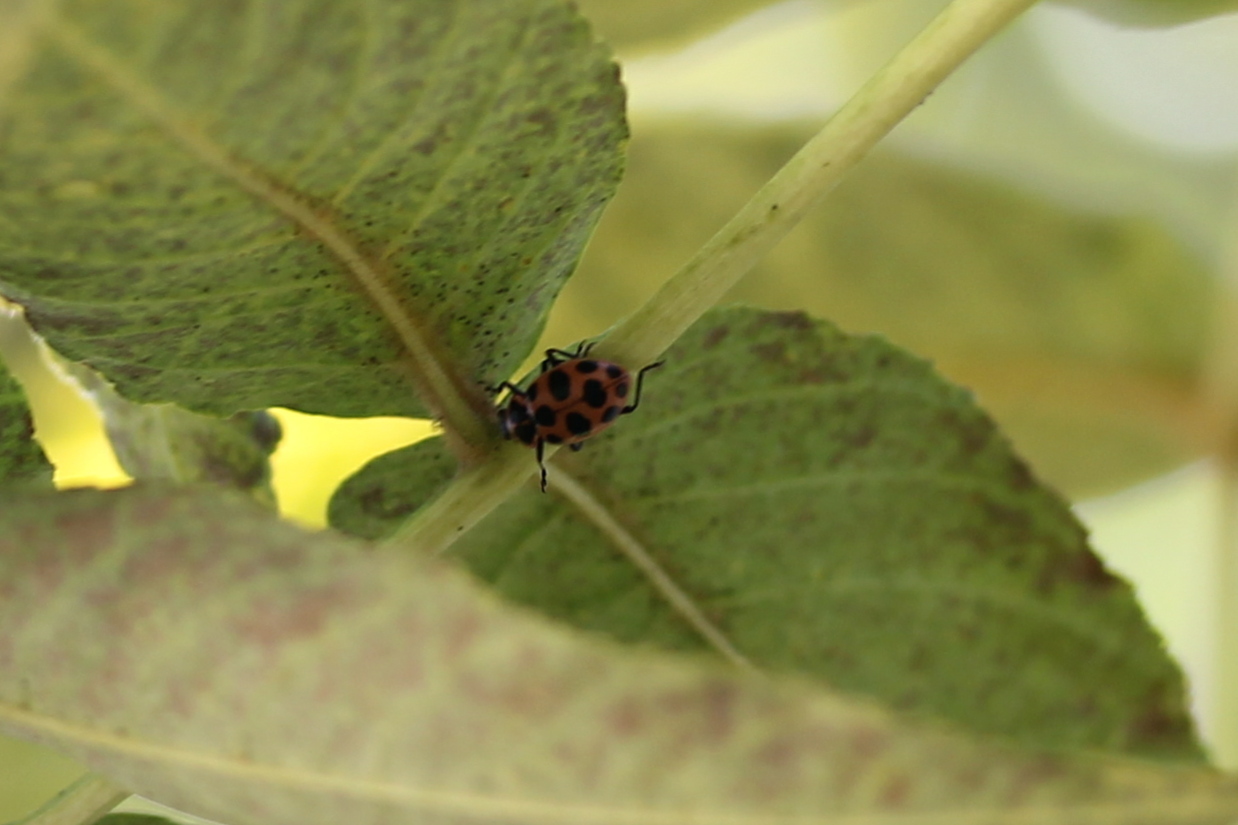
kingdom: Animalia
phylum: Arthropoda
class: Insecta
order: Coleoptera
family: Coccinellidae
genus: Coleomegilla
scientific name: Coleomegilla maculata
